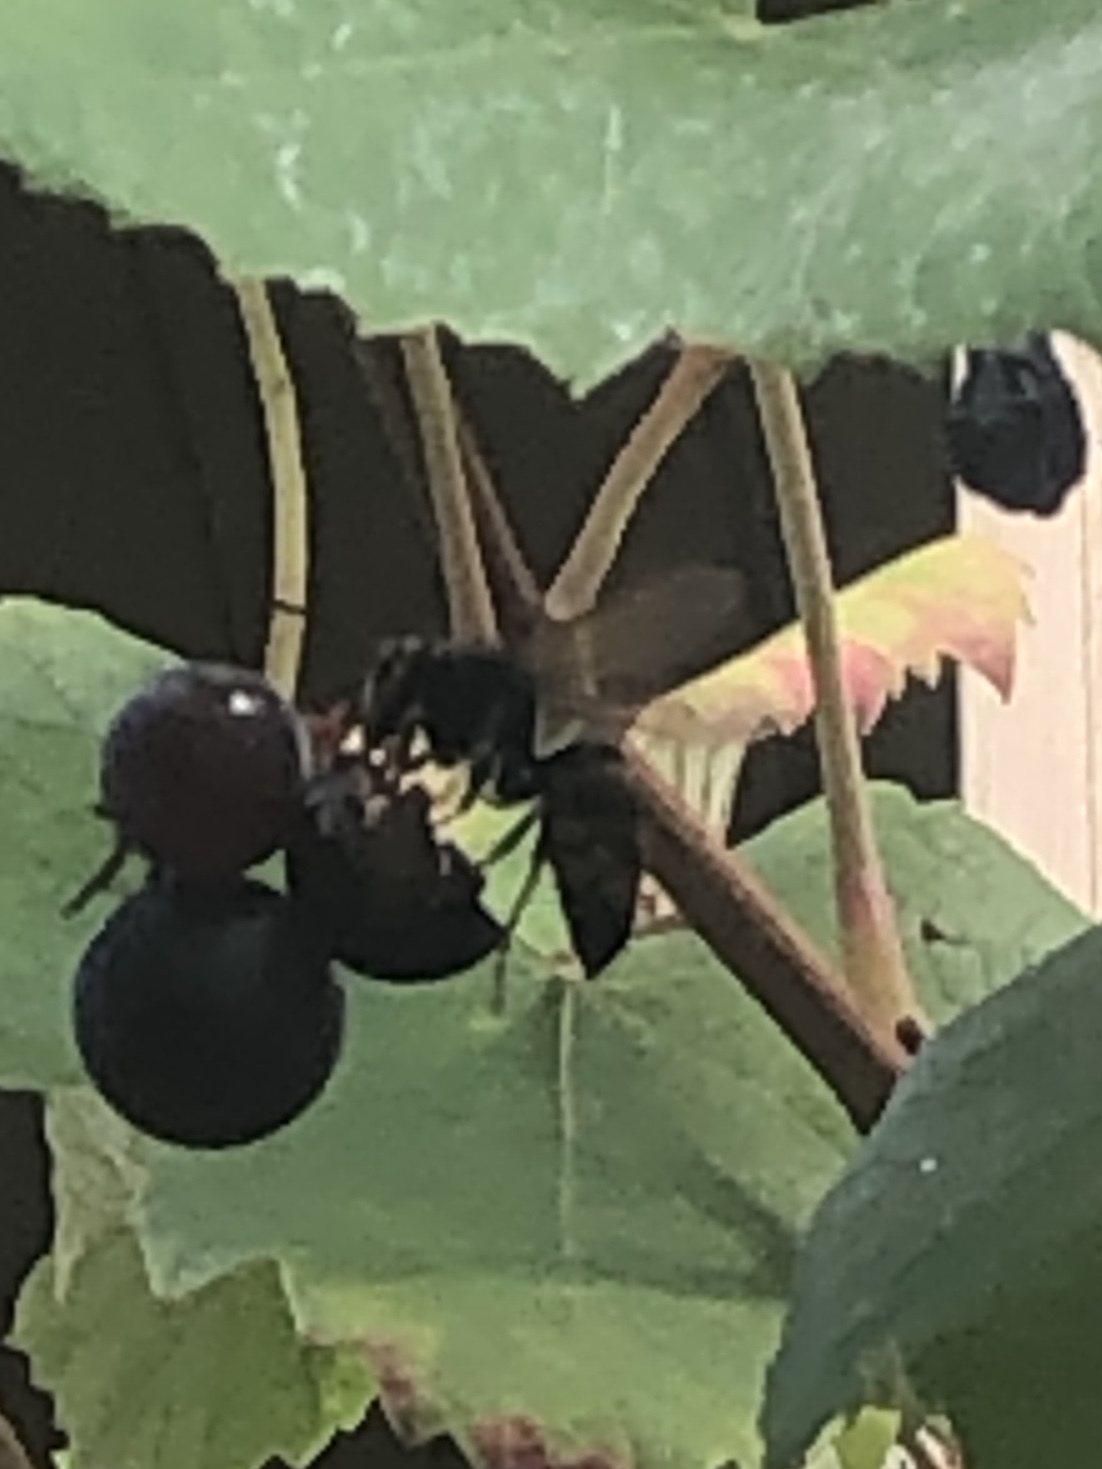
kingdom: Animalia
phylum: Arthropoda
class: Insecta
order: Hymenoptera
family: Vespidae
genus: Vespa
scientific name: Vespa velutina
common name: Asian hornet
